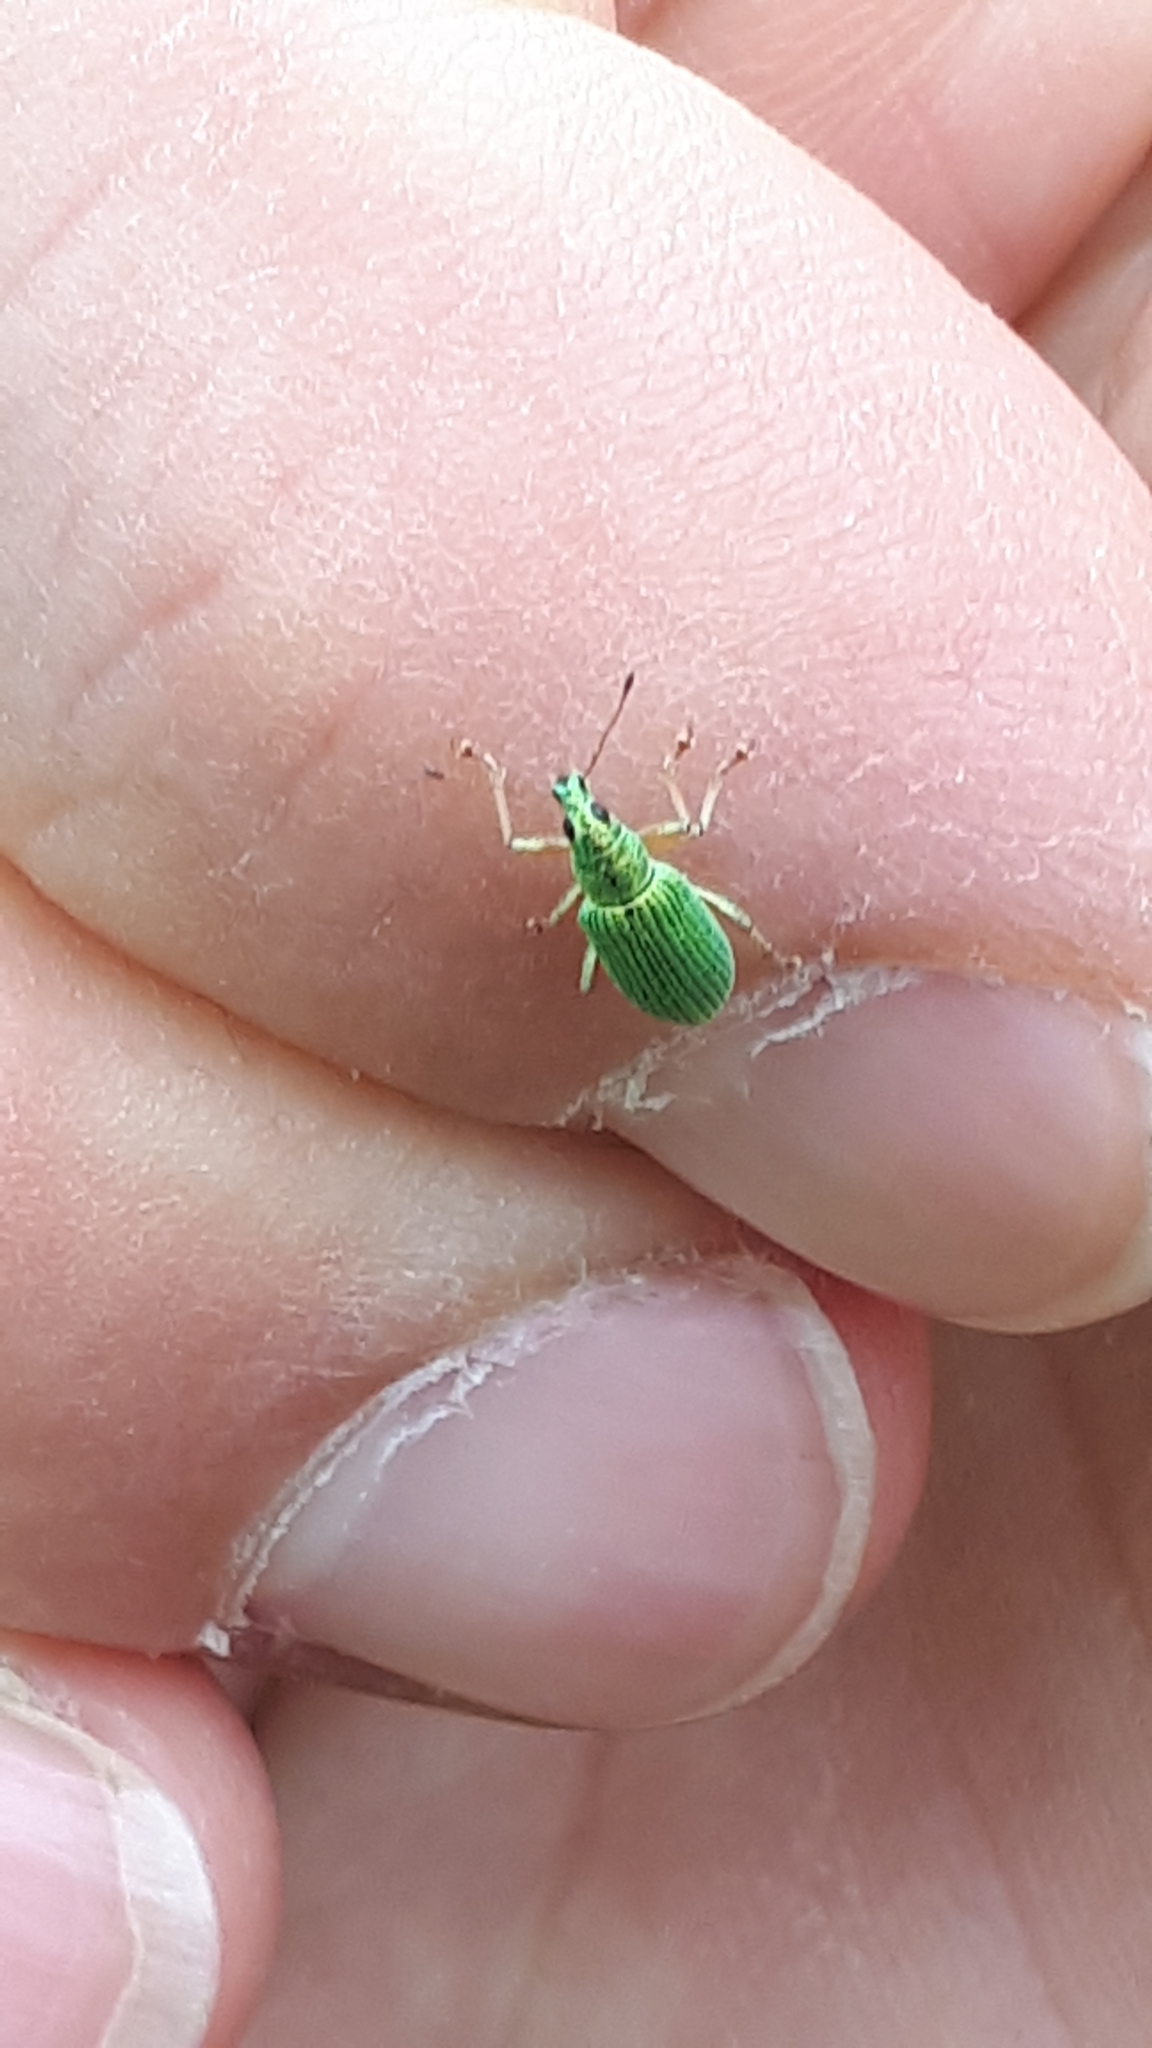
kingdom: Animalia
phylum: Arthropoda
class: Insecta
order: Coleoptera
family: Curculionidae
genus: Polydrusus
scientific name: Polydrusus formosus
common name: Weevil
